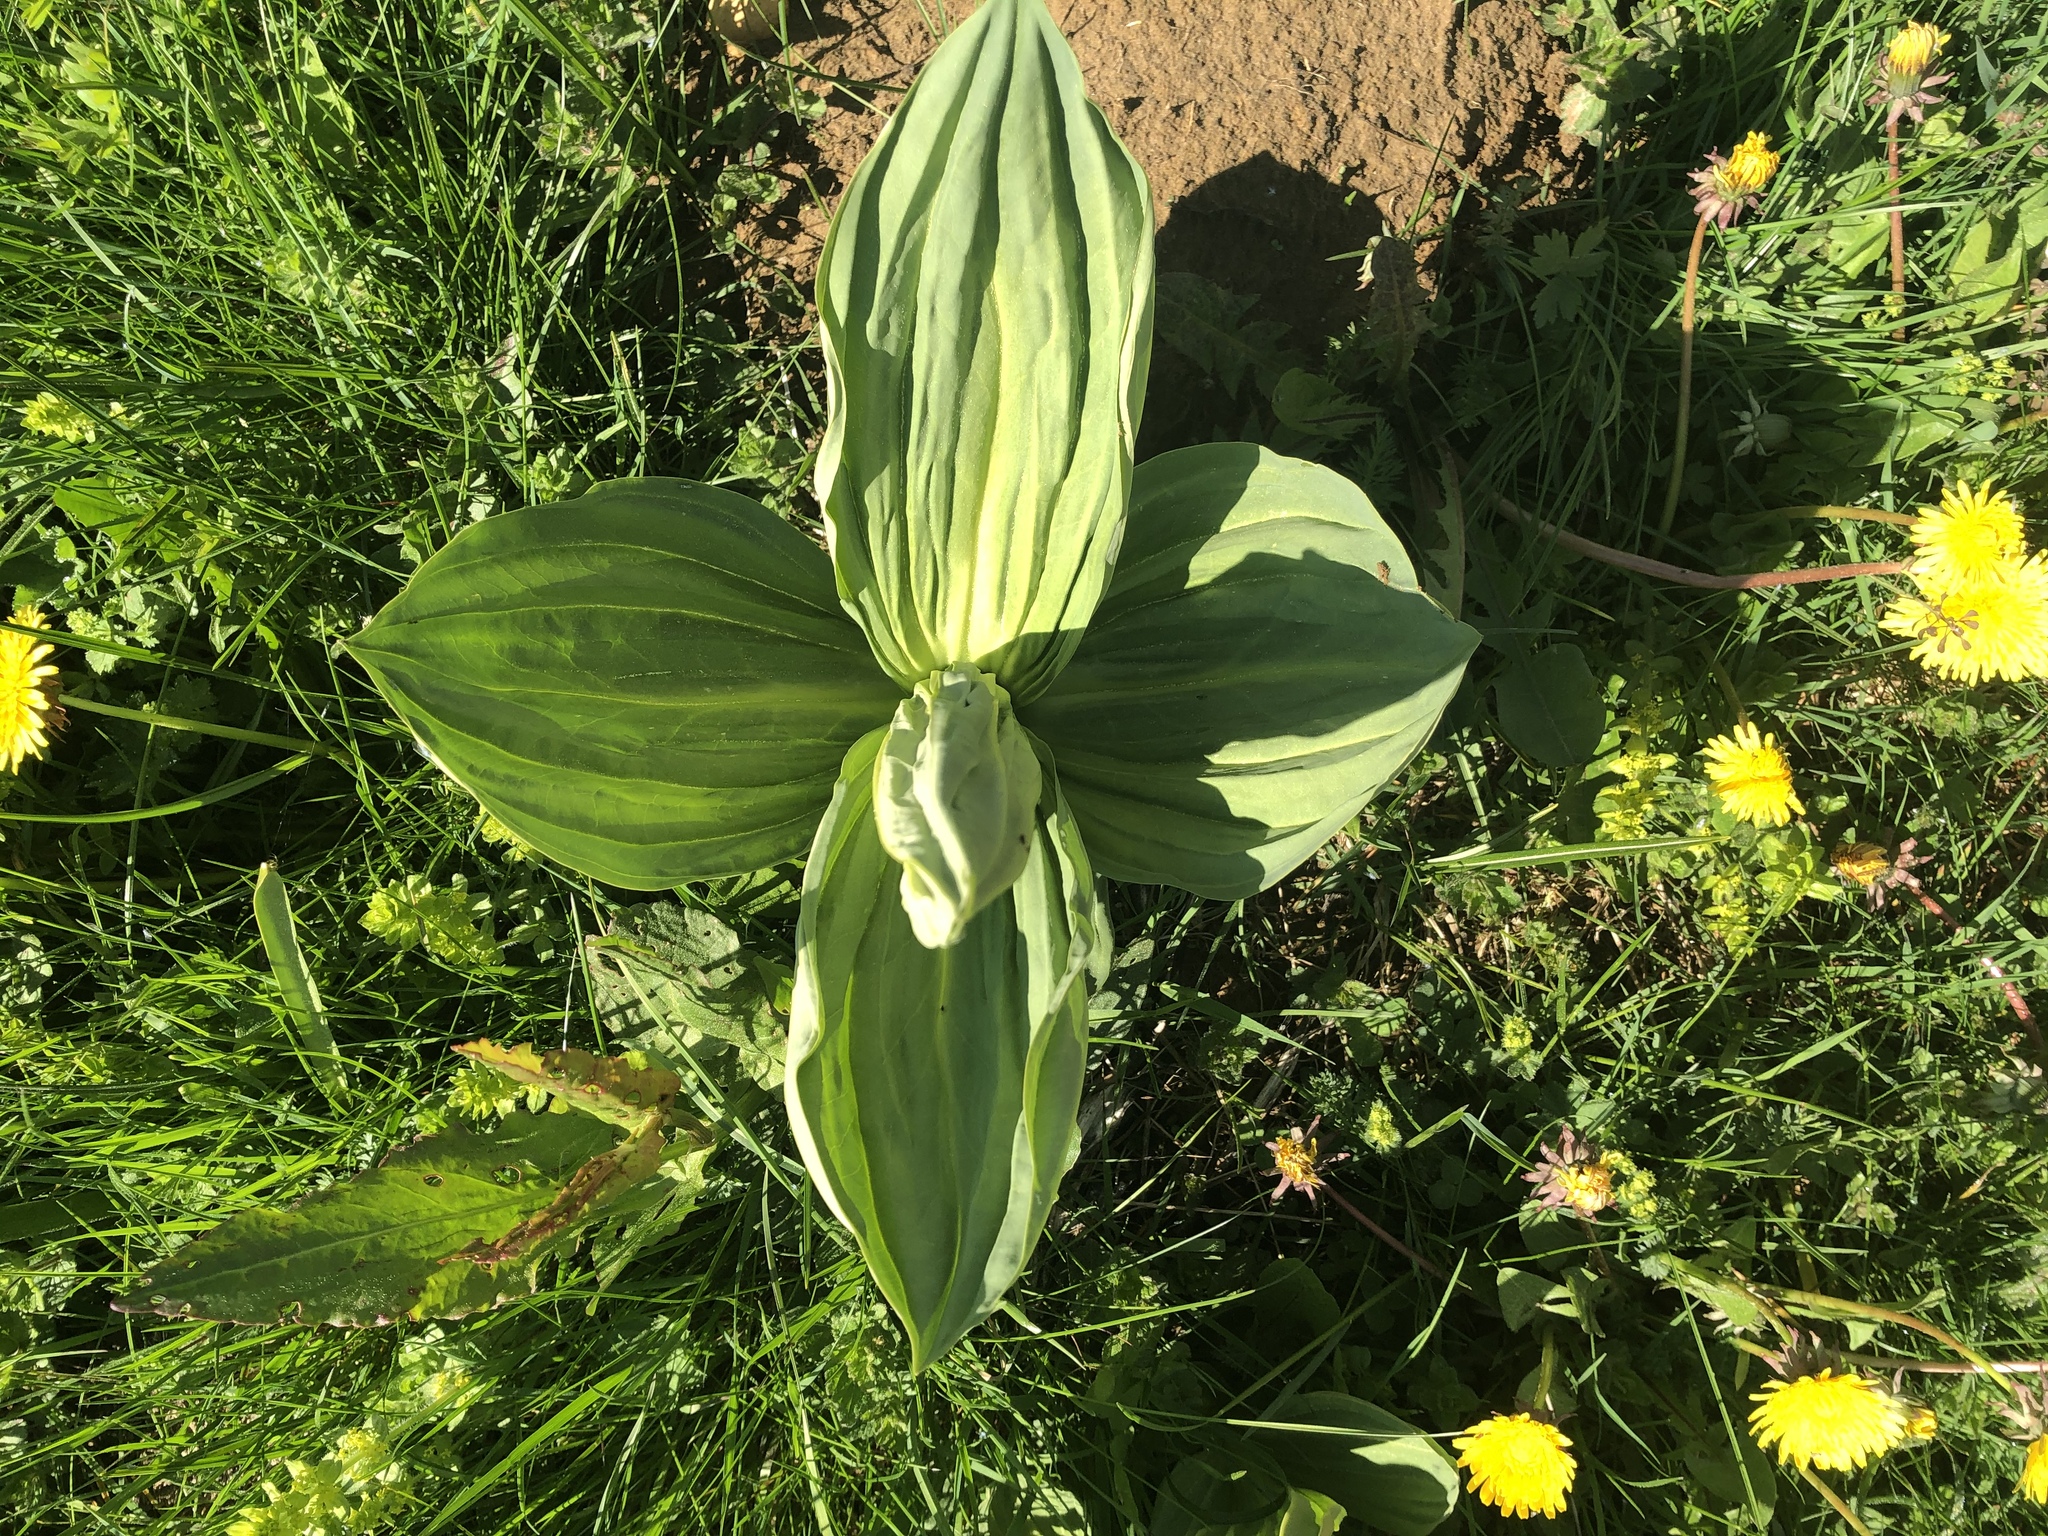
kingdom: Plantae
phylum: Tracheophyta
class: Magnoliopsida
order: Gentianales
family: Gentianaceae
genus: Gentiana
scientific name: Gentiana lutea
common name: Great yellow gentian
